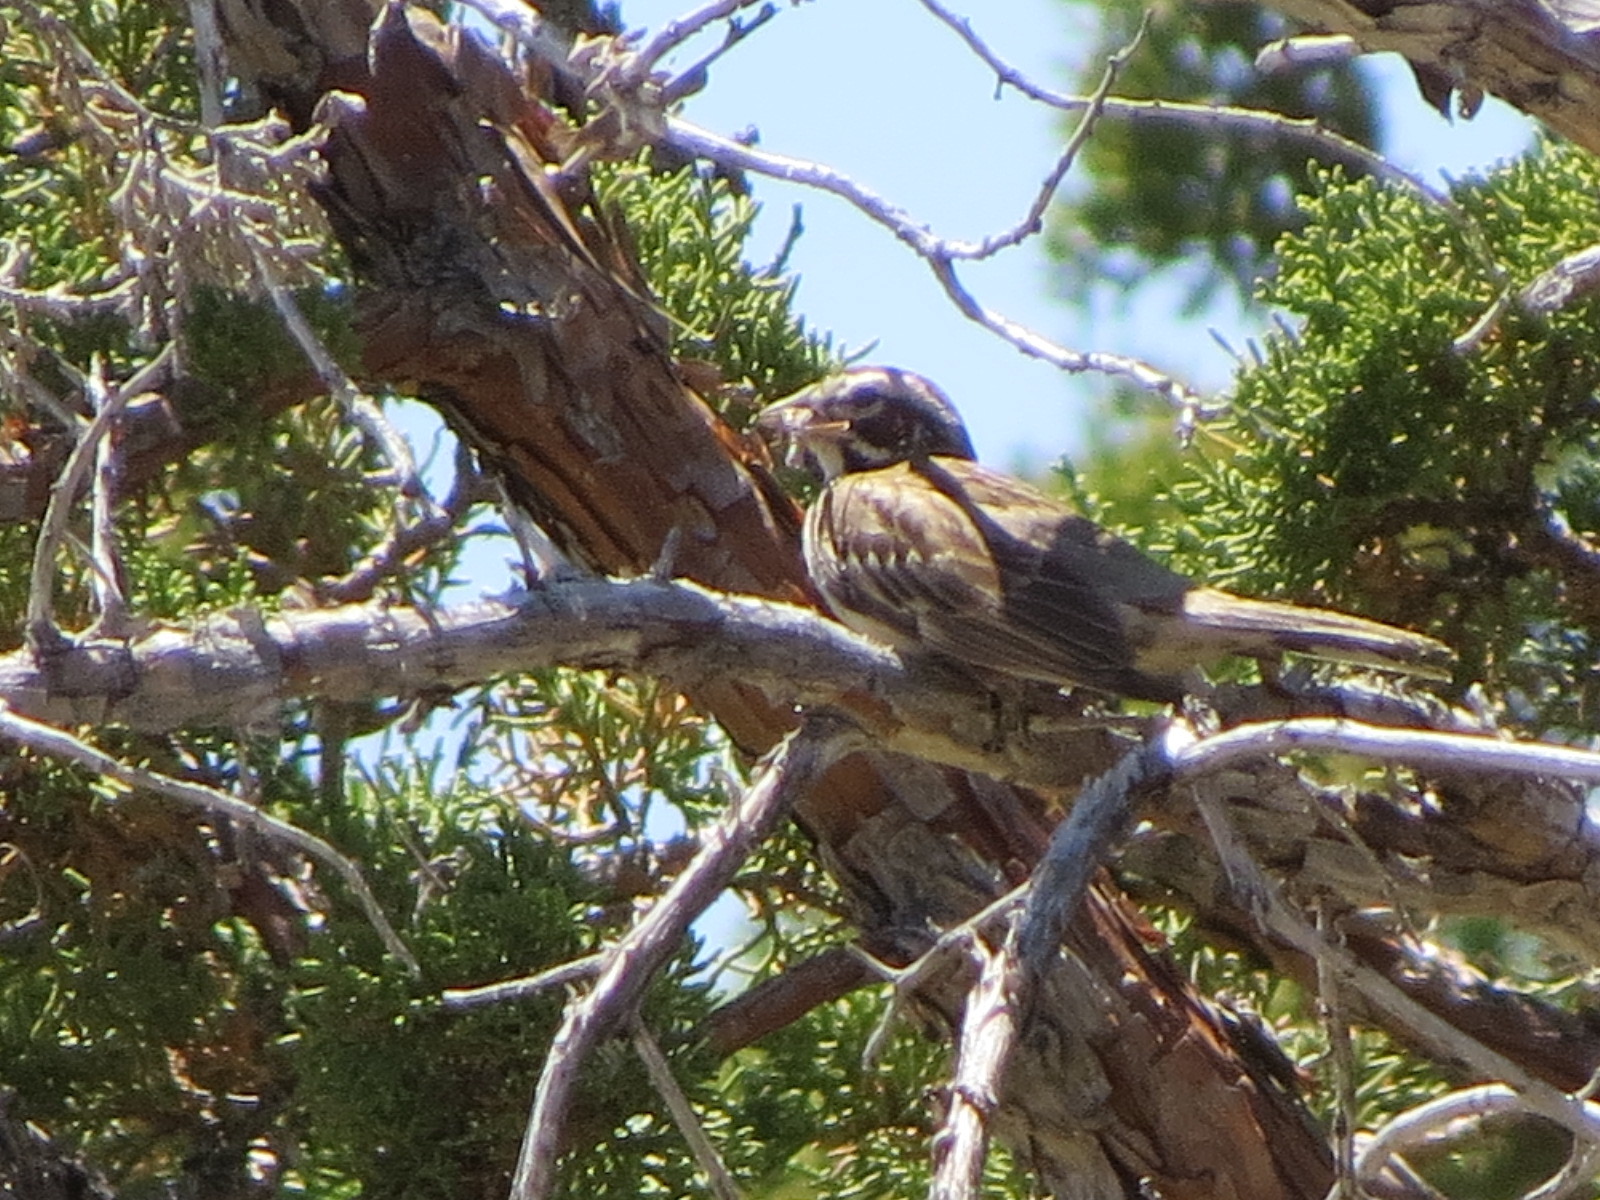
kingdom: Animalia
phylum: Chordata
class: Aves
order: Passeriformes
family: Passerellidae
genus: Chondestes
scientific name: Chondestes grammacus
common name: Lark sparrow
